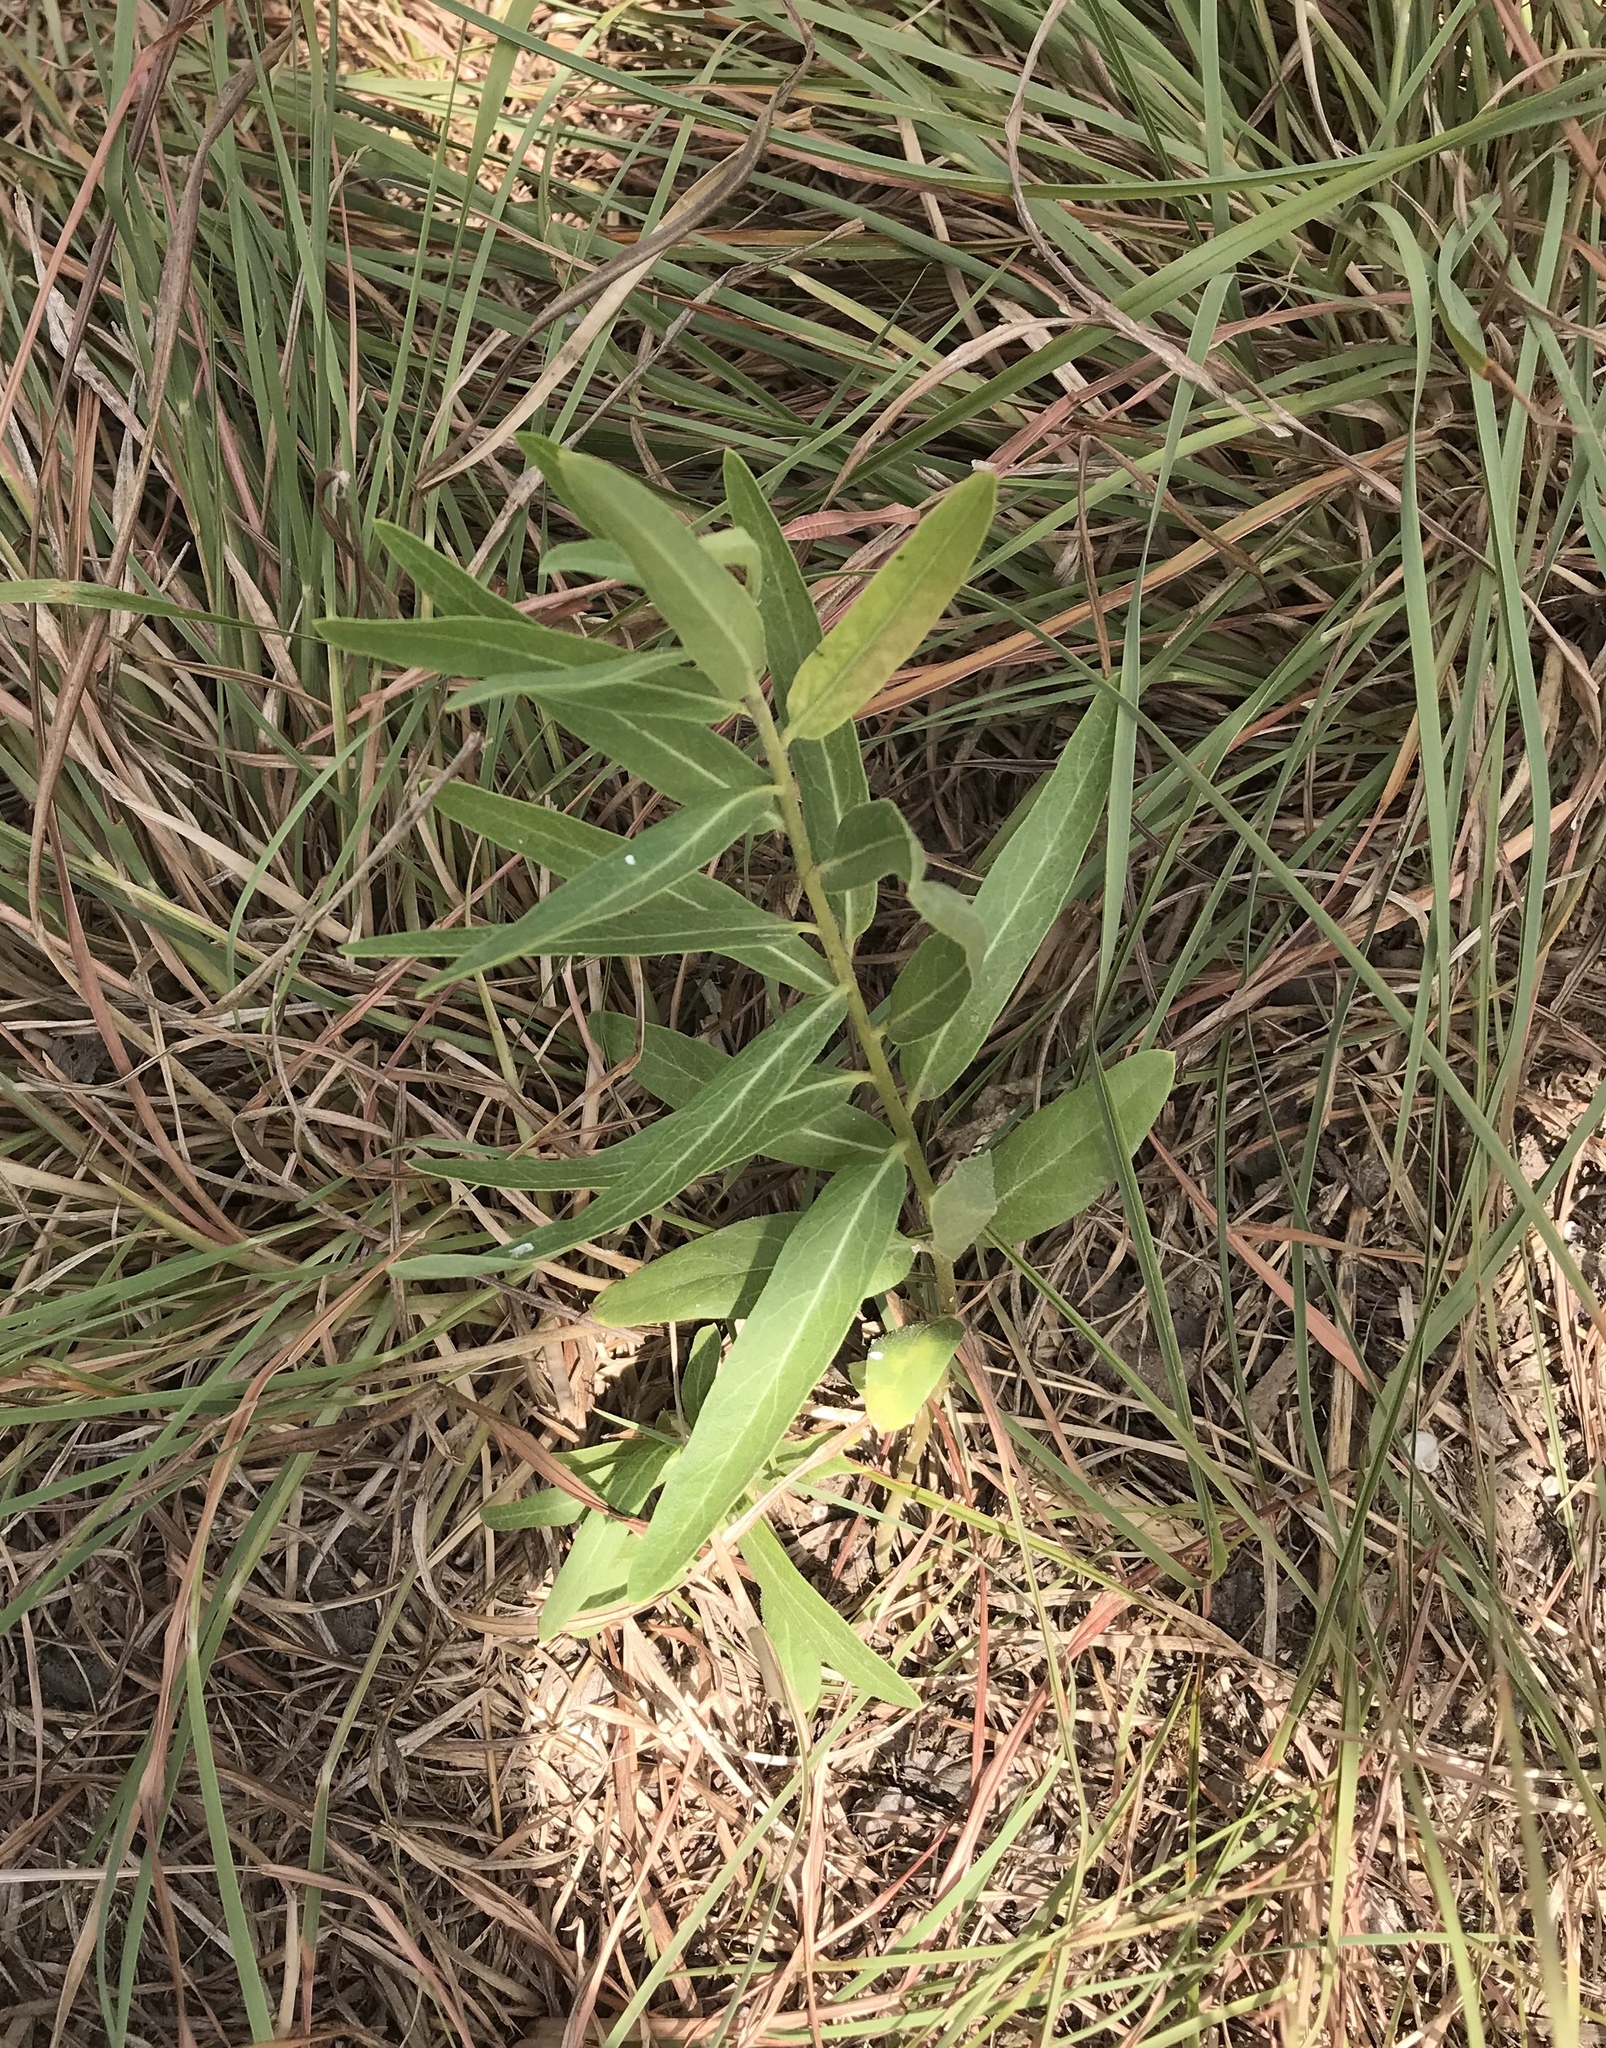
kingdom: Plantae
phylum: Tracheophyta
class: Magnoliopsida
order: Gentianales
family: Apocynaceae
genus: Asclepias
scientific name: Asclepias asperula
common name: Antelope horns
